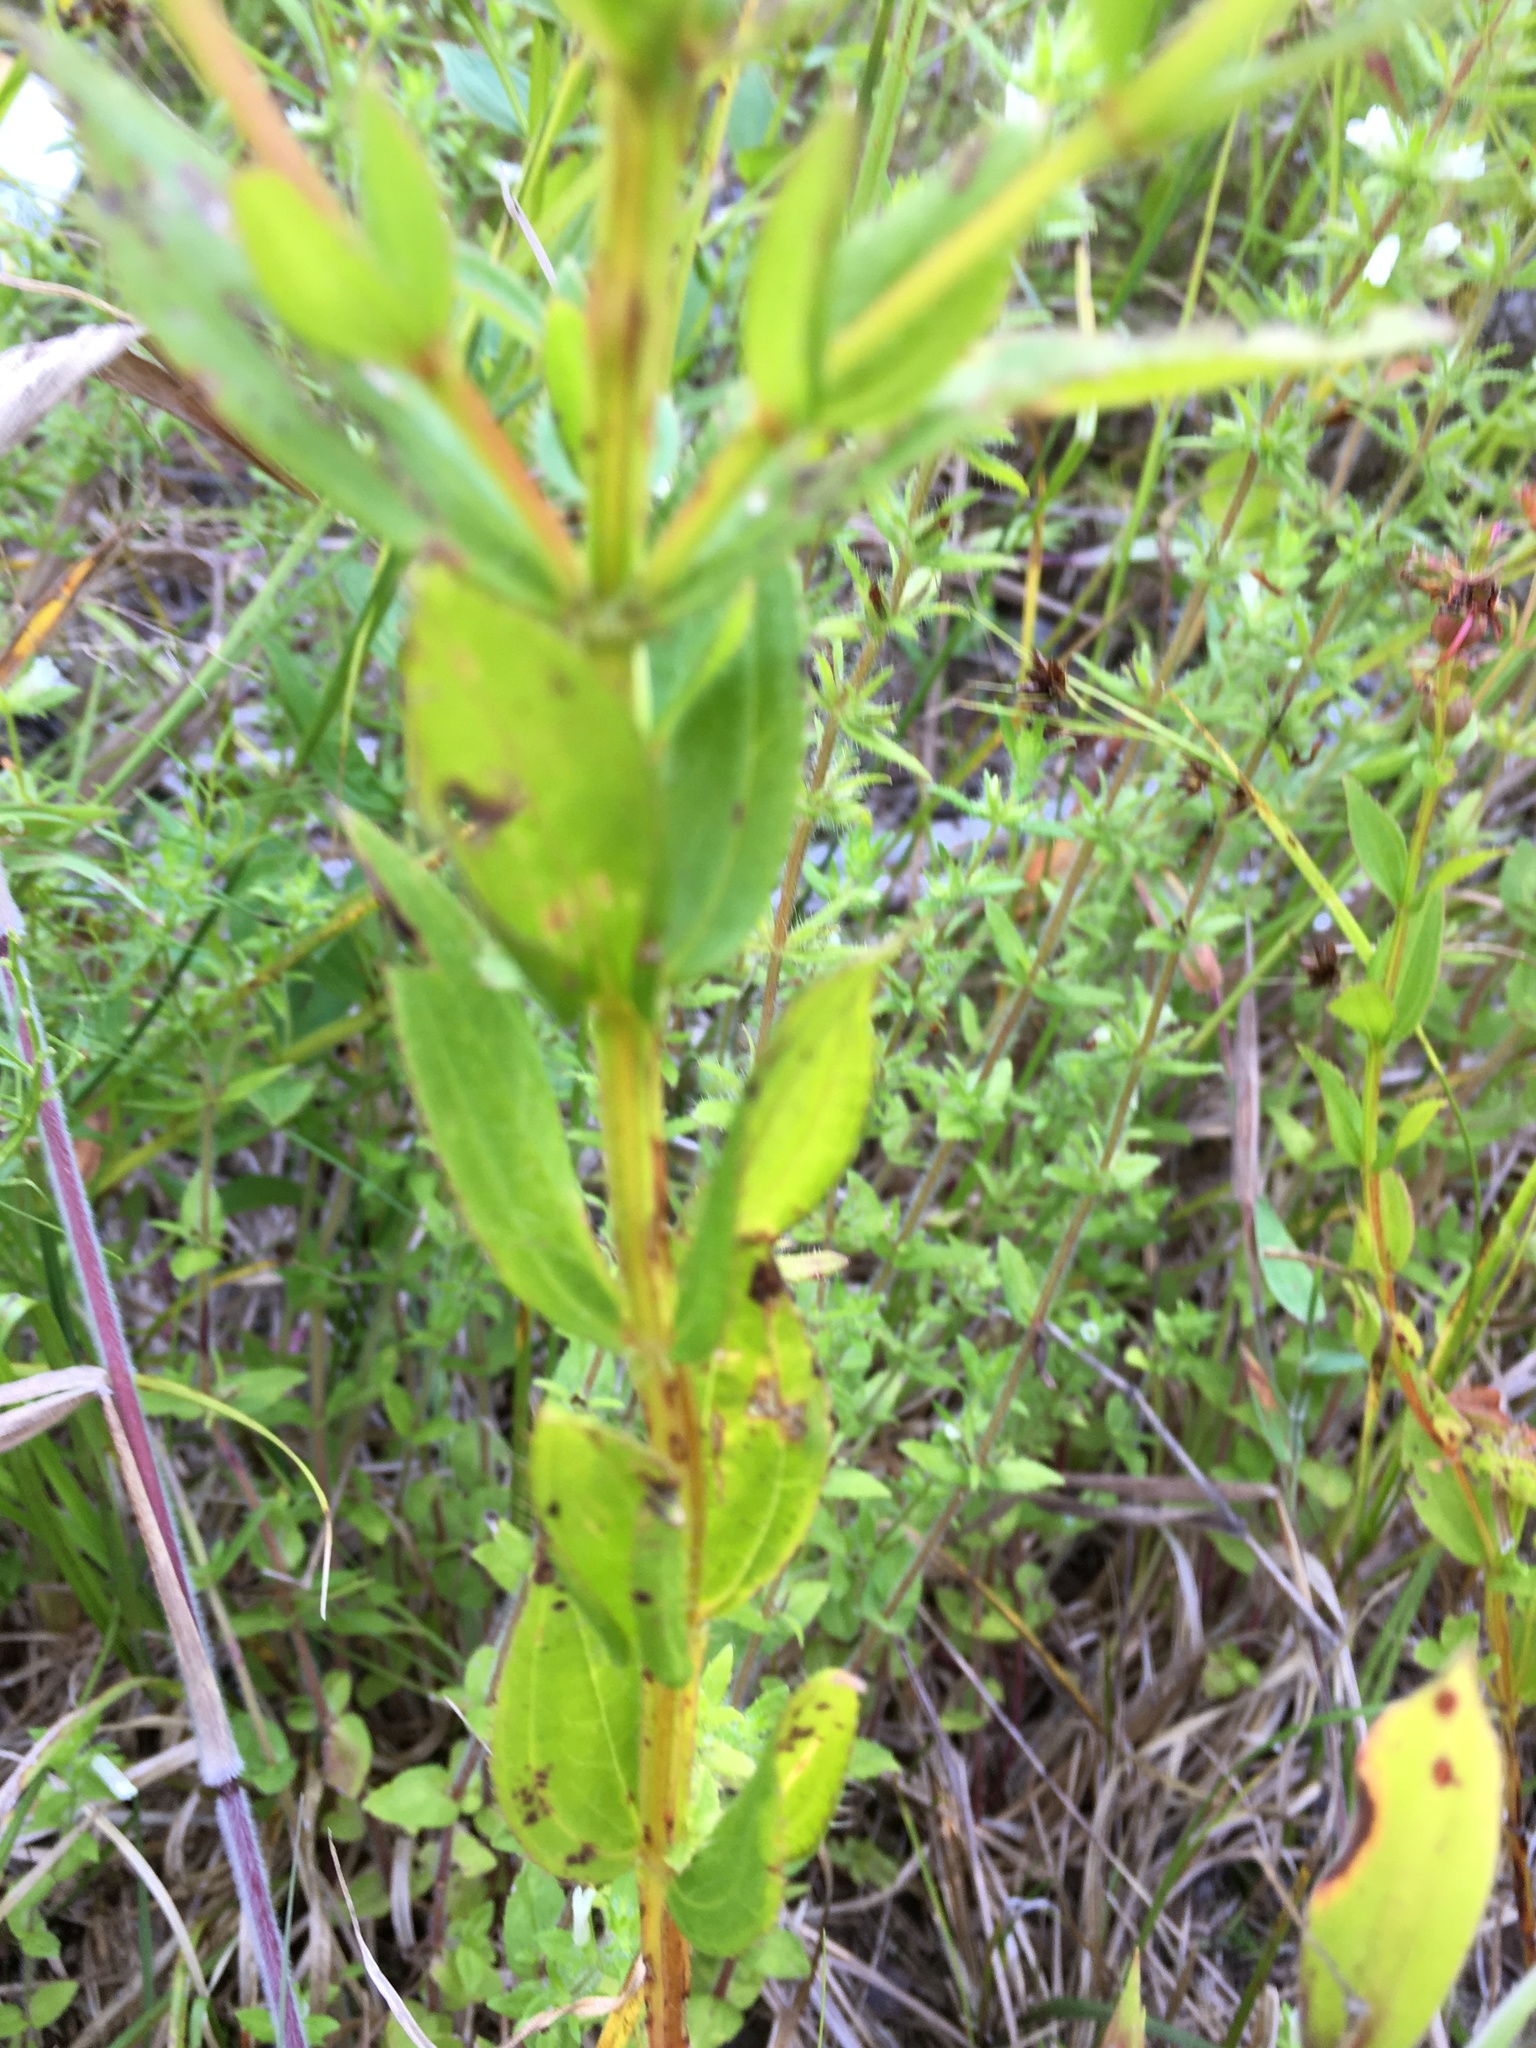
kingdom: Plantae
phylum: Tracheophyta
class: Magnoliopsida
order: Myrtales
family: Melastomataceae
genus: Rhexia
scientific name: Rhexia virginica
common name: Common meadow beauty
